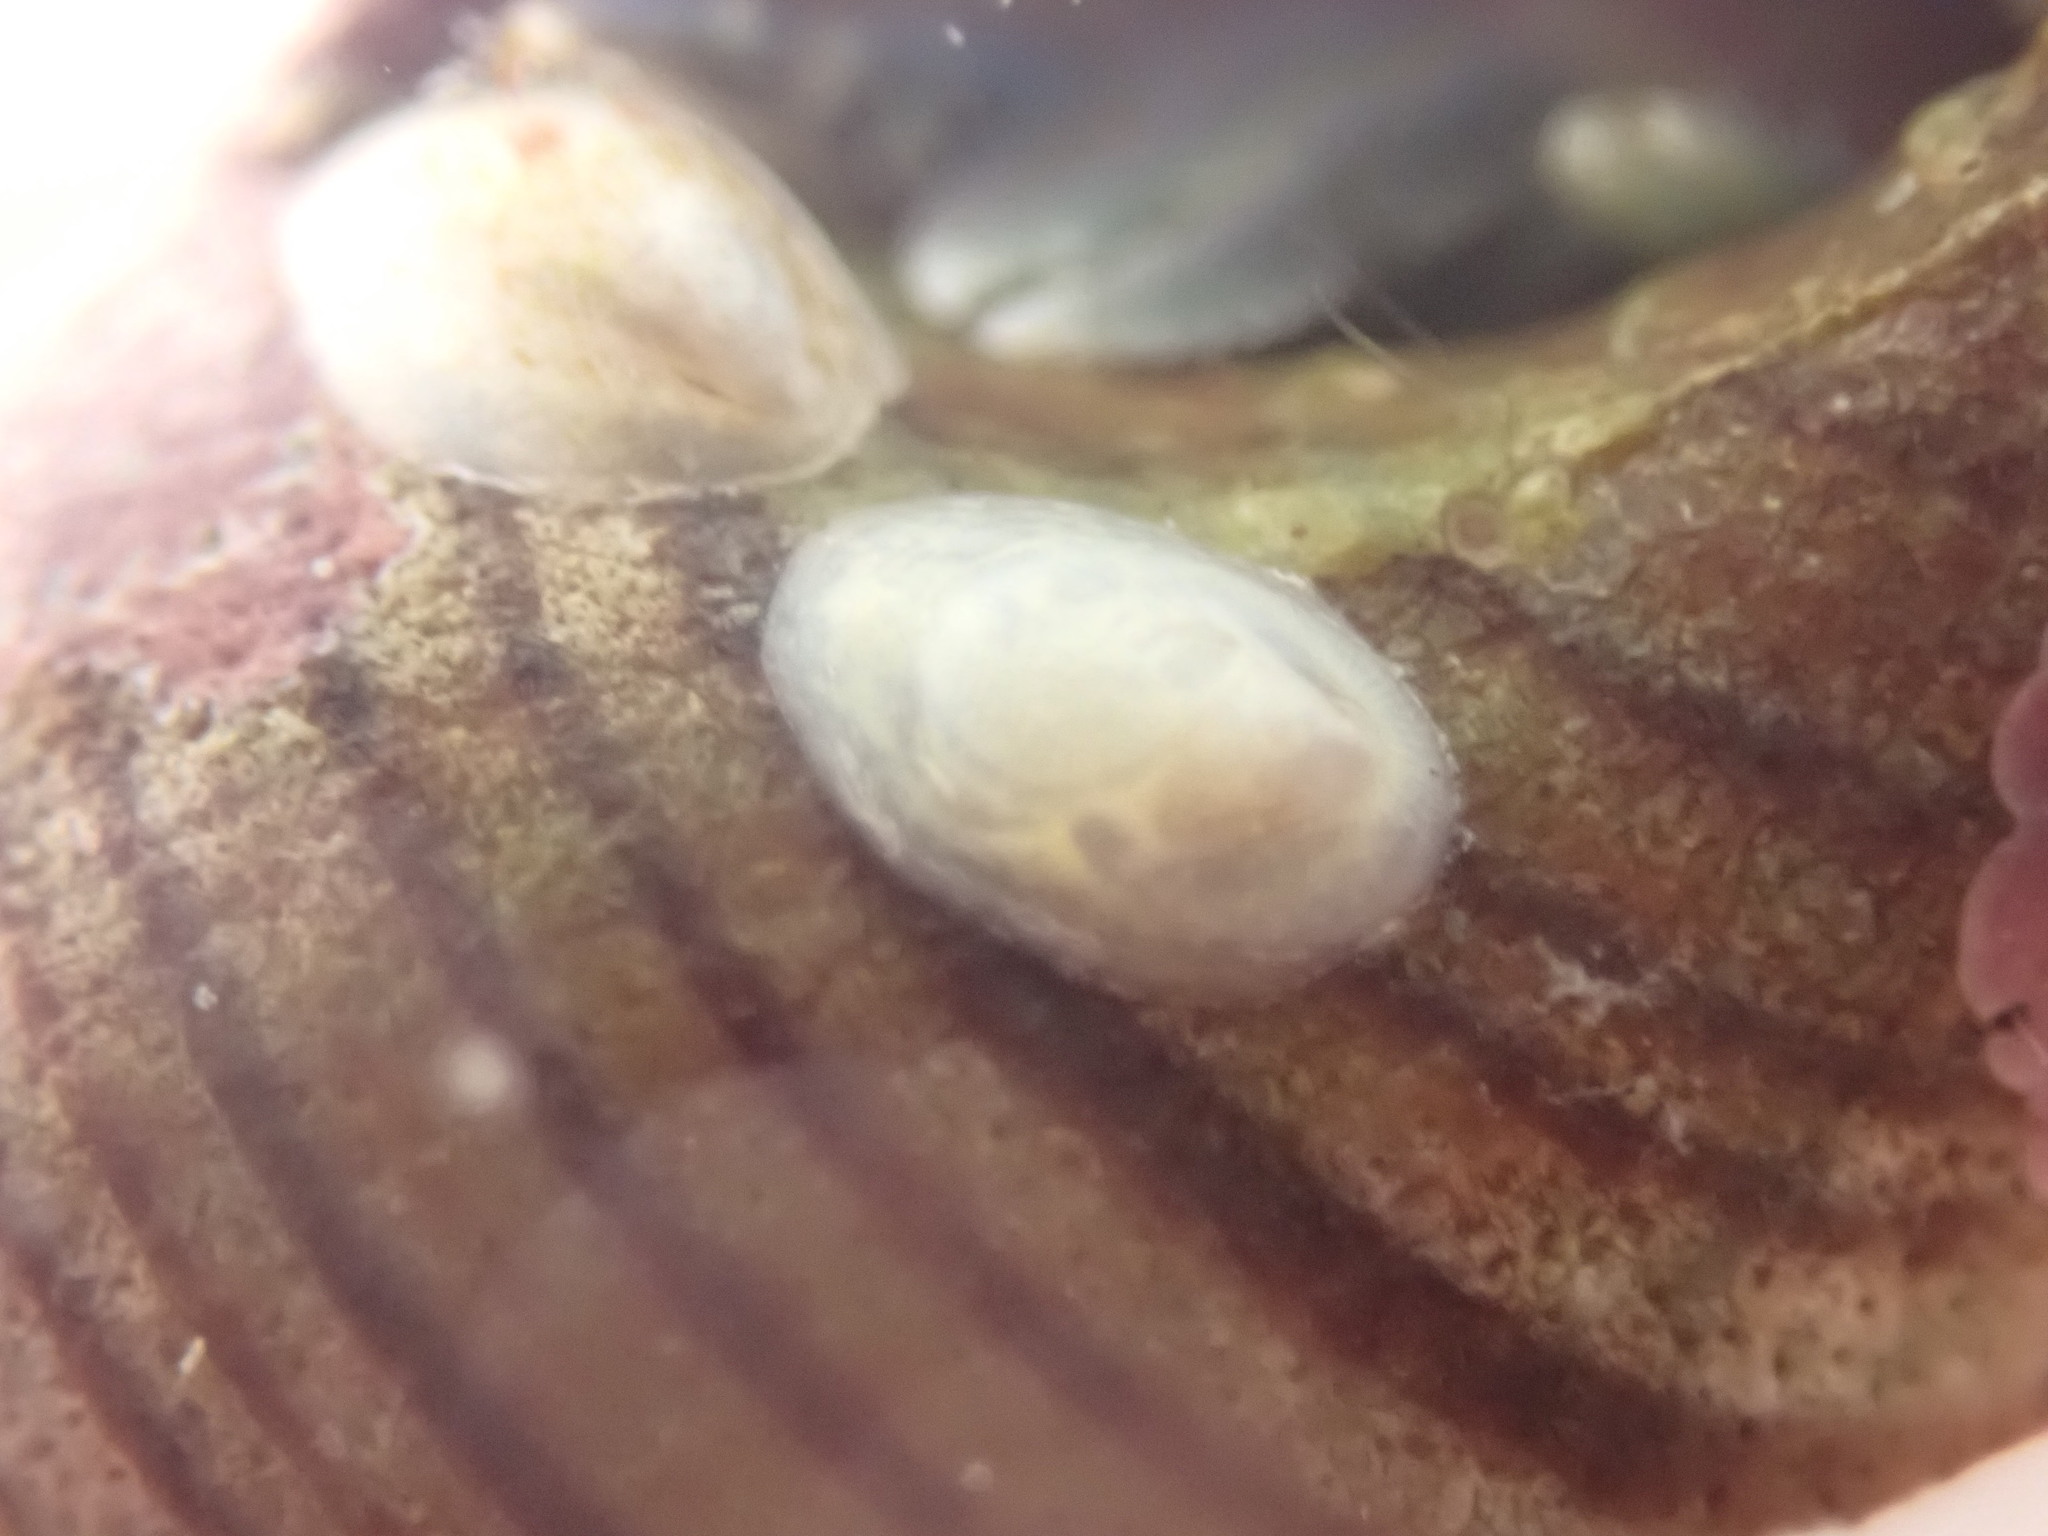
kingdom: Animalia
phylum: Mollusca
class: Gastropoda
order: Littorinimorpha
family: Calyptraeidae
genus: Maoricrypta
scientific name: Maoricrypta monoxyla
